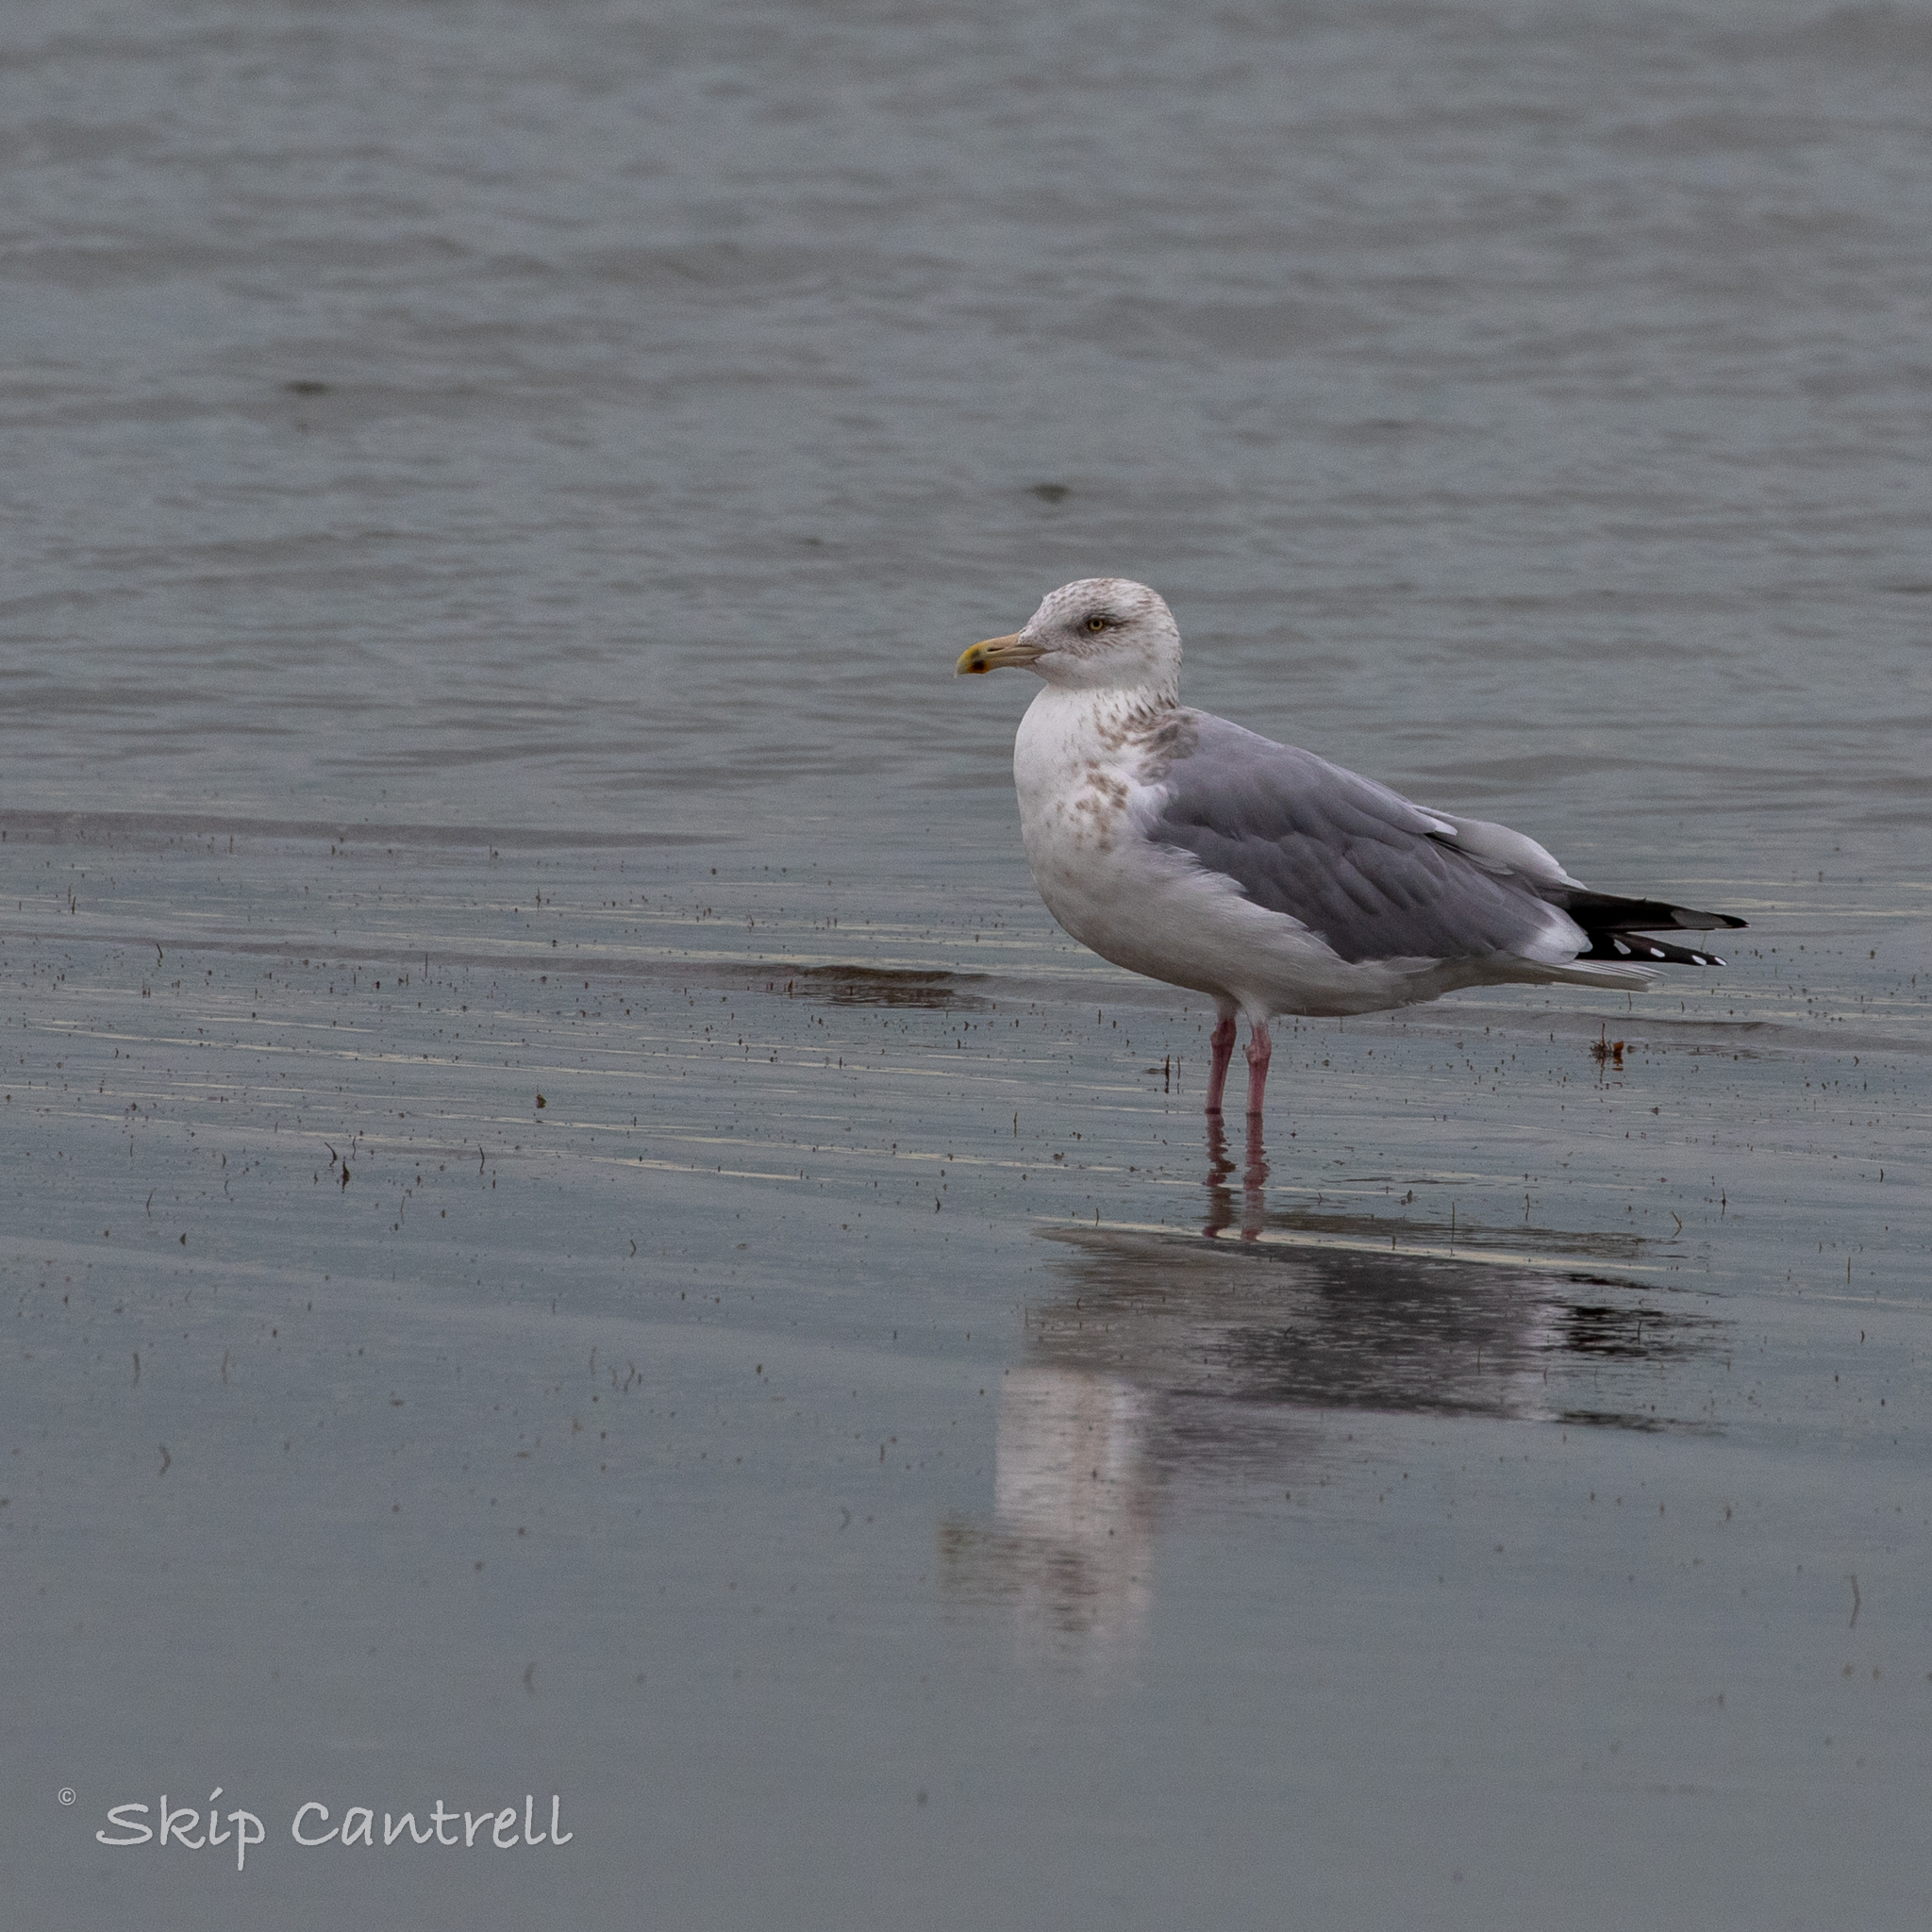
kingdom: Animalia
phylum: Chordata
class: Aves
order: Charadriiformes
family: Laridae
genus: Larus
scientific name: Larus argentatus
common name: Herring gull
